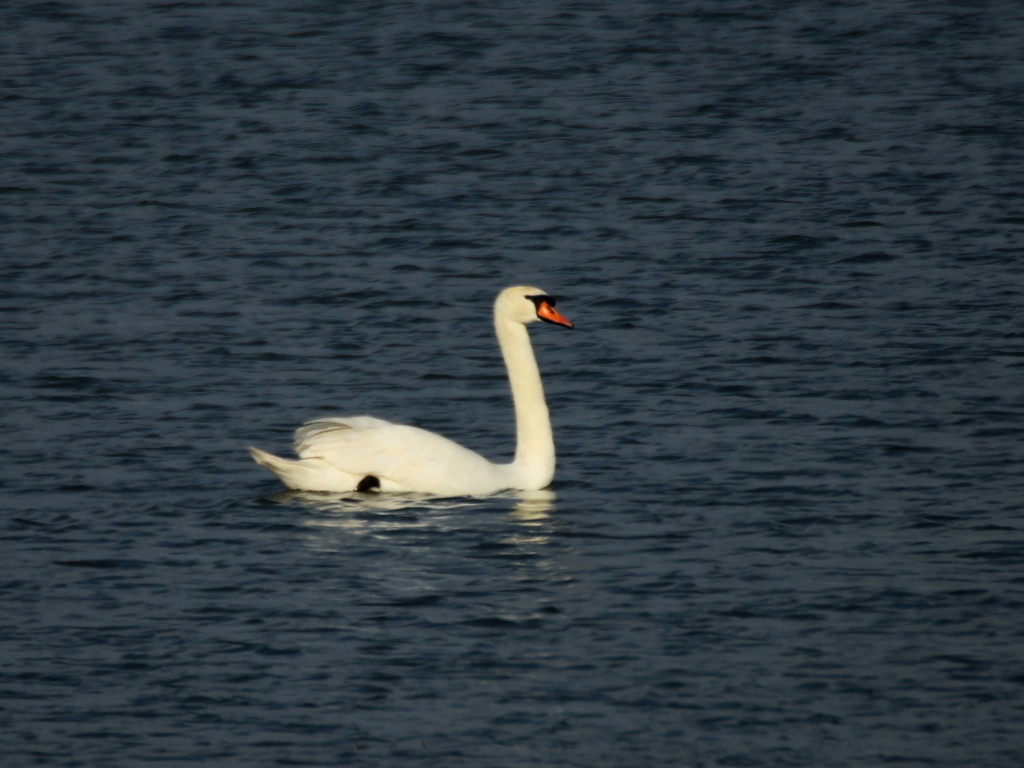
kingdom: Animalia
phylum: Chordata
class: Aves
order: Anseriformes
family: Anatidae
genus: Cygnus
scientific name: Cygnus olor
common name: Mute swan
